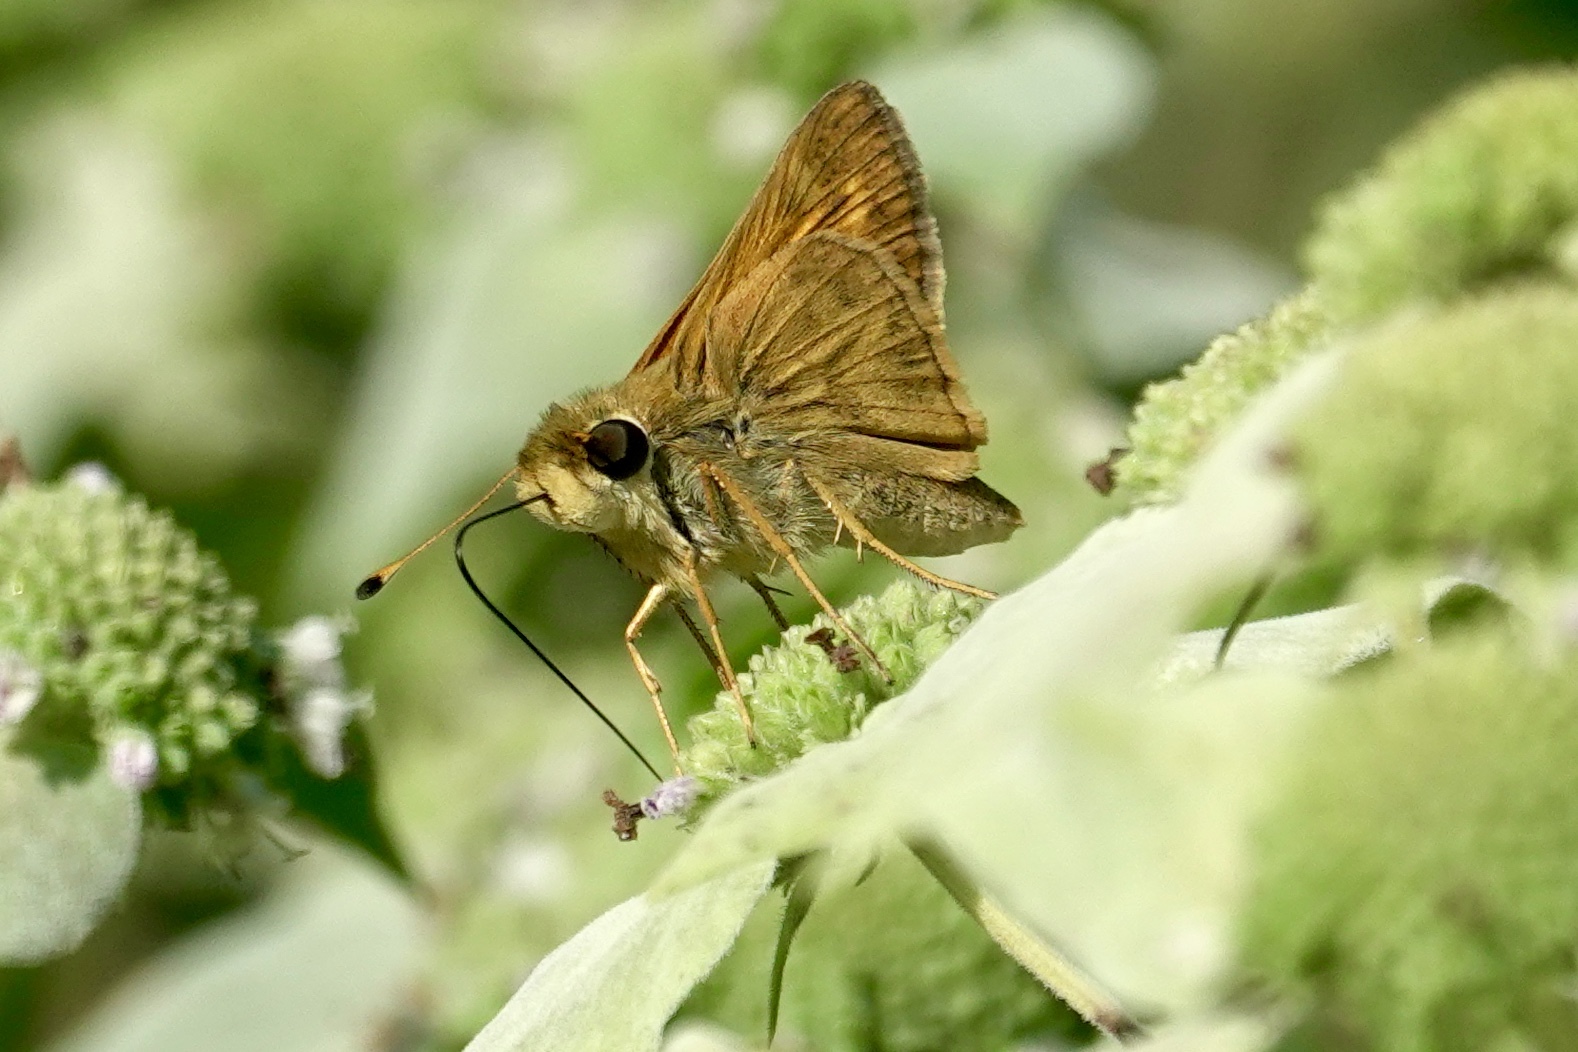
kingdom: Animalia
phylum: Arthropoda
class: Insecta
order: Lepidoptera
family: Hesperiidae
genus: Atalopedes
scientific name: Atalopedes
